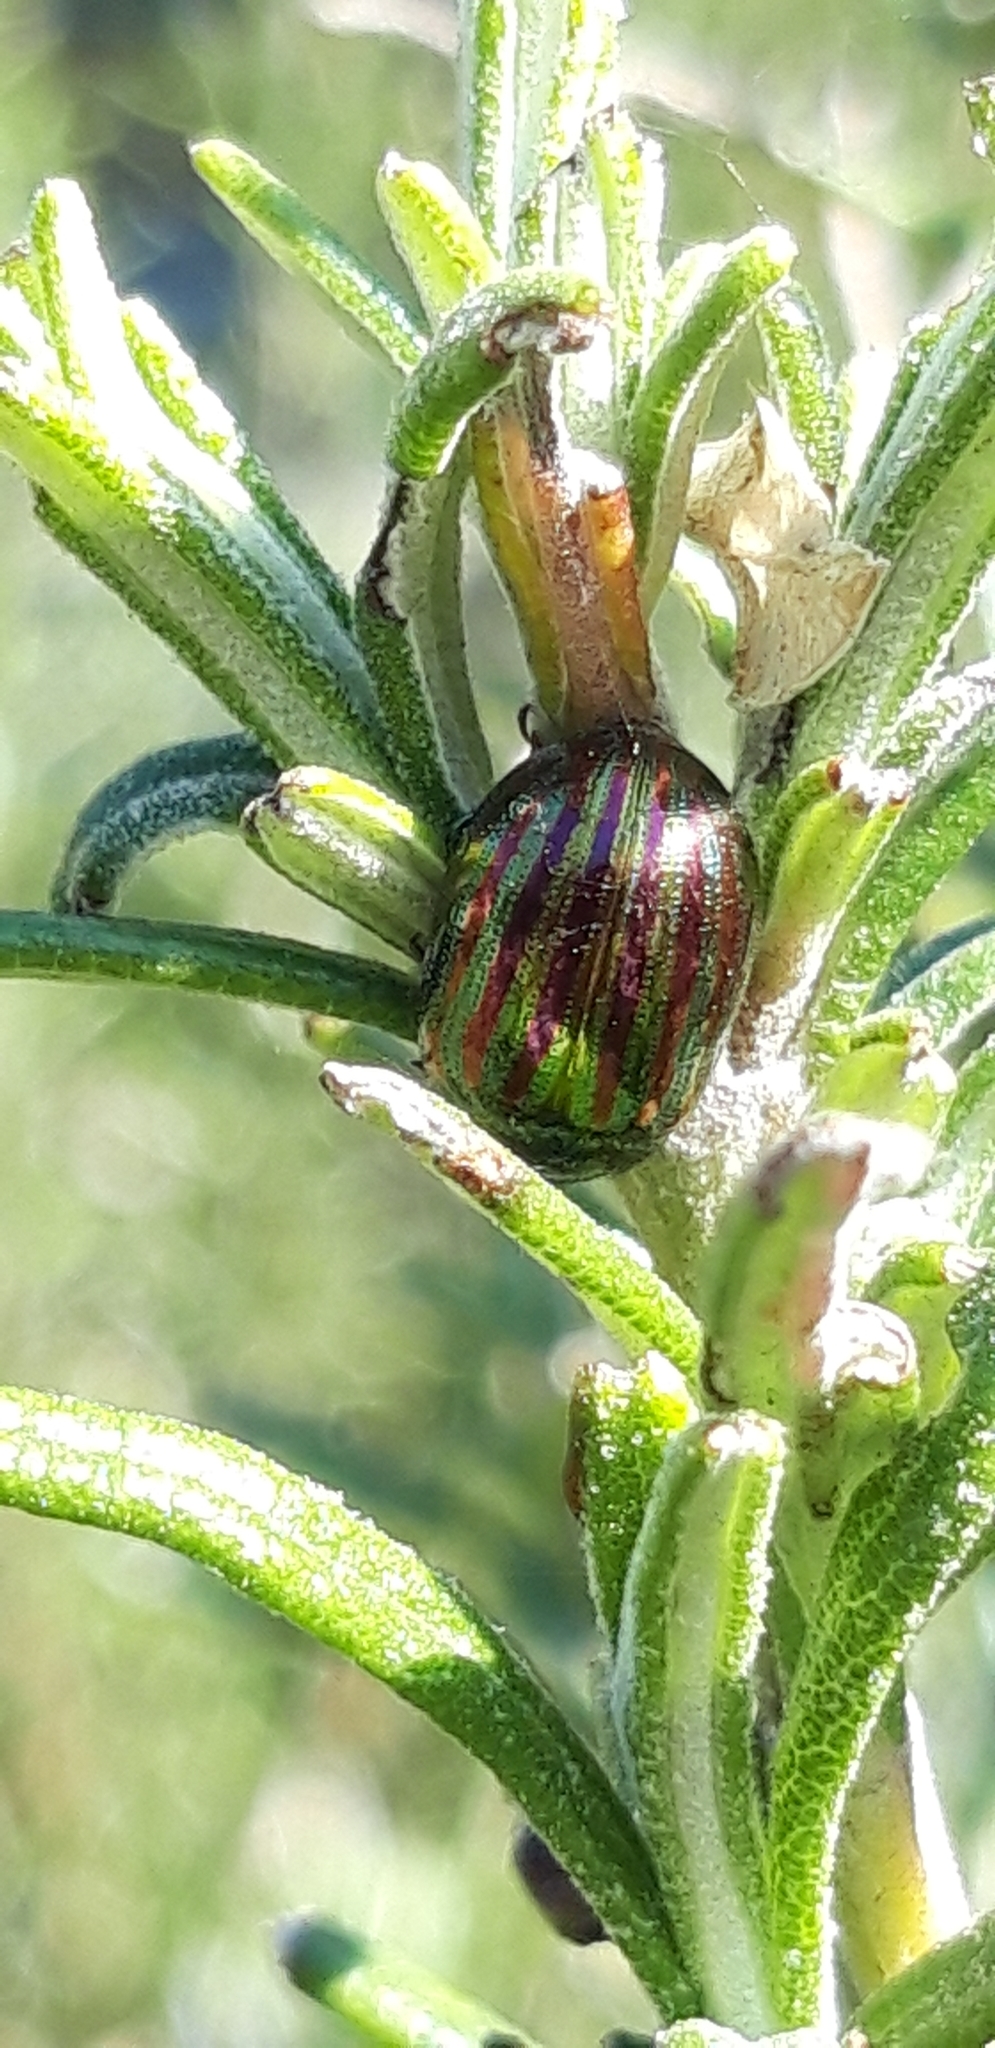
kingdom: Animalia
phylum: Arthropoda
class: Insecta
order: Coleoptera
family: Chrysomelidae
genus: Chrysolina
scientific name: Chrysolina americana
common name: Rosemary beetle
